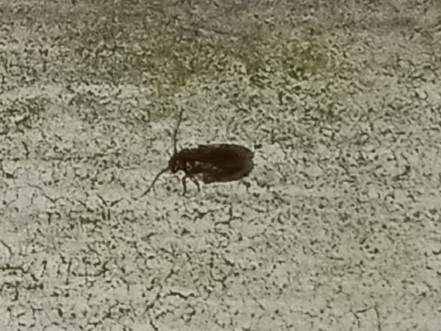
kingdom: Animalia
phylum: Arthropoda
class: Insecta
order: Psocodea
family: Amphipsocidae
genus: Polypsocus
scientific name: Polypsocus corruptus
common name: Corrupt barklouse
